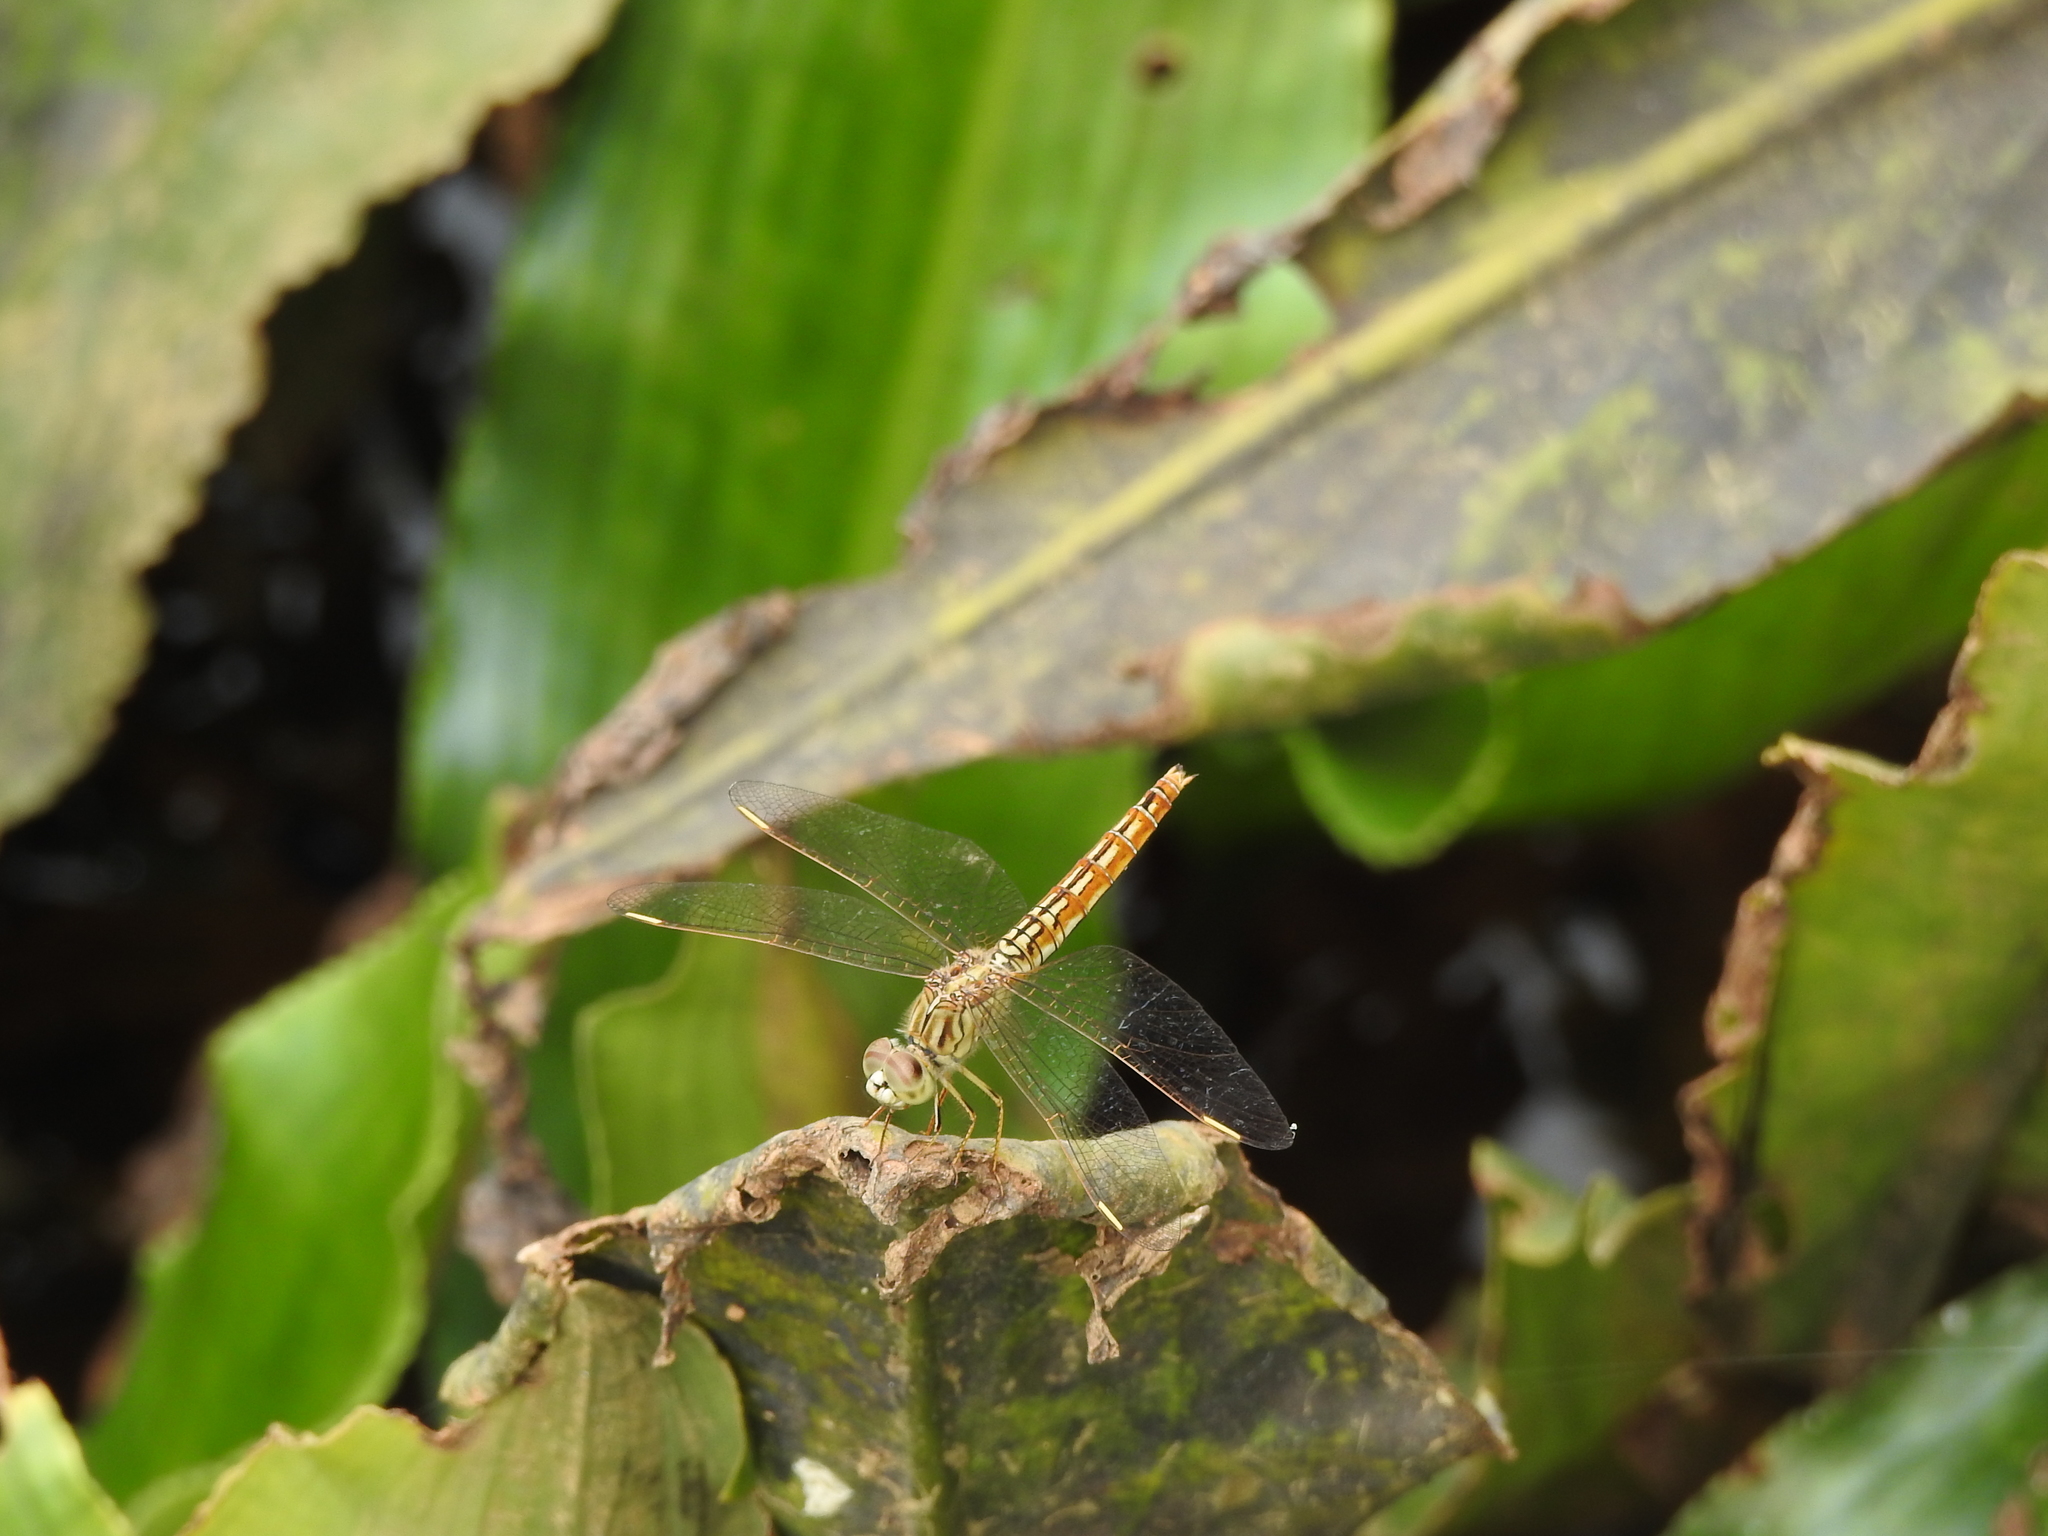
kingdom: Animalia
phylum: Arthropoda
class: Insecta
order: Odonata
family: Libellulidae
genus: Brachythemis
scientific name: Brachythemis contaminata
